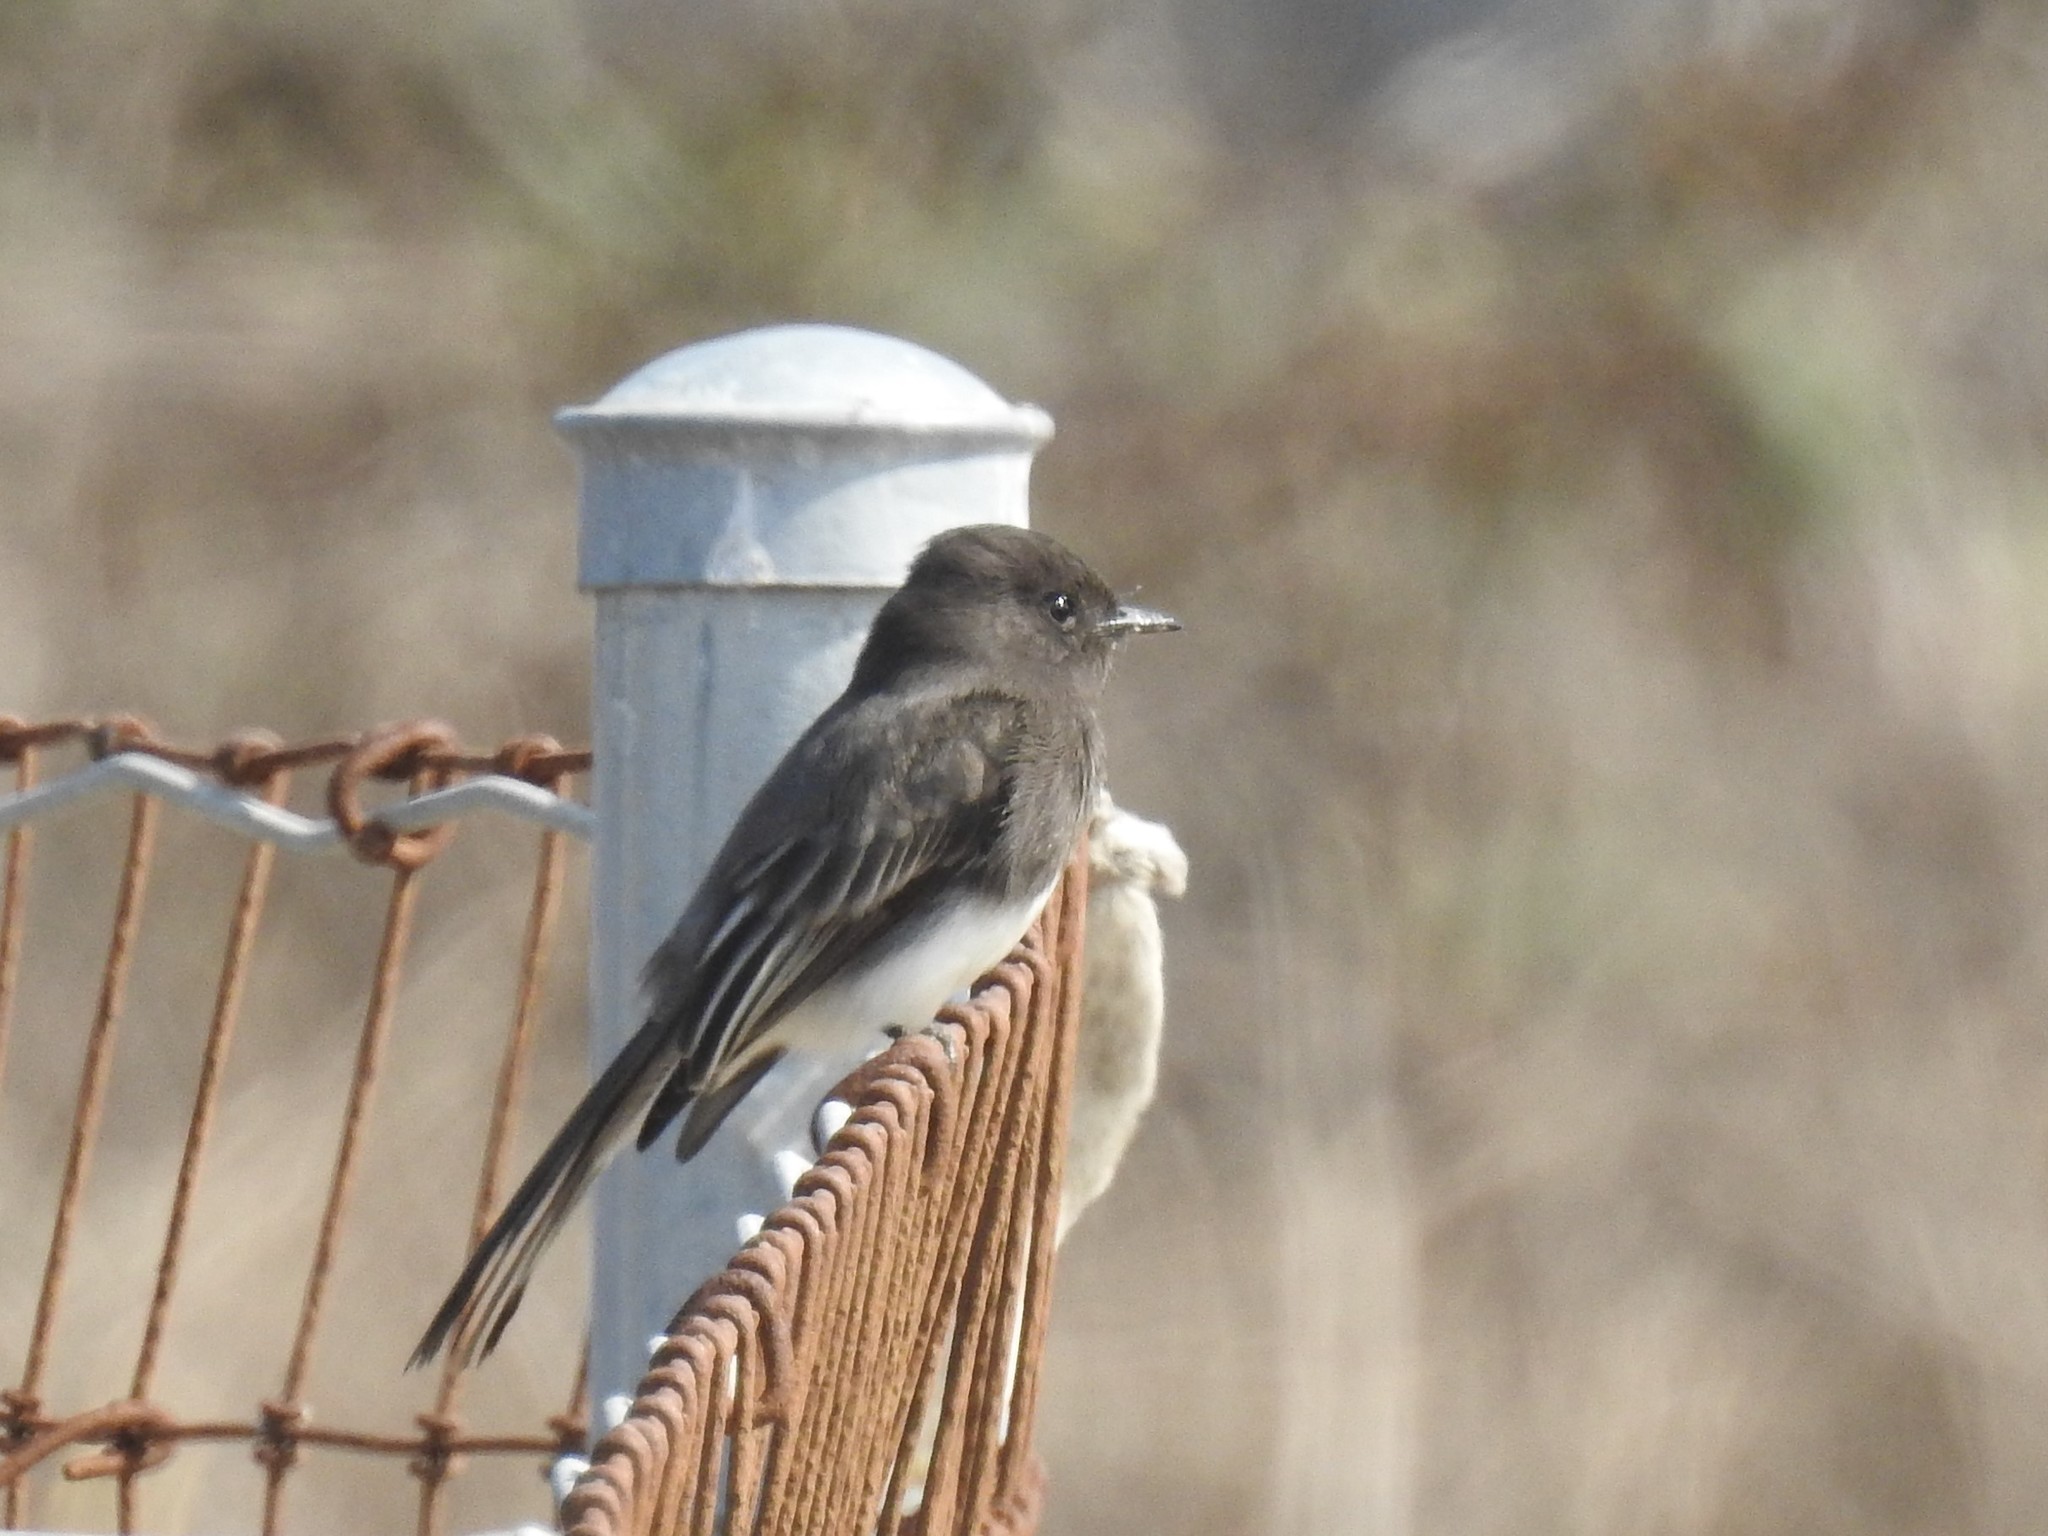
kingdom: Animalia
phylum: Chordata
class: Aves
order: Passeriformes
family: Tyrannidae
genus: Sayornis
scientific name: Sayornis nigricans
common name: Black phoebe
